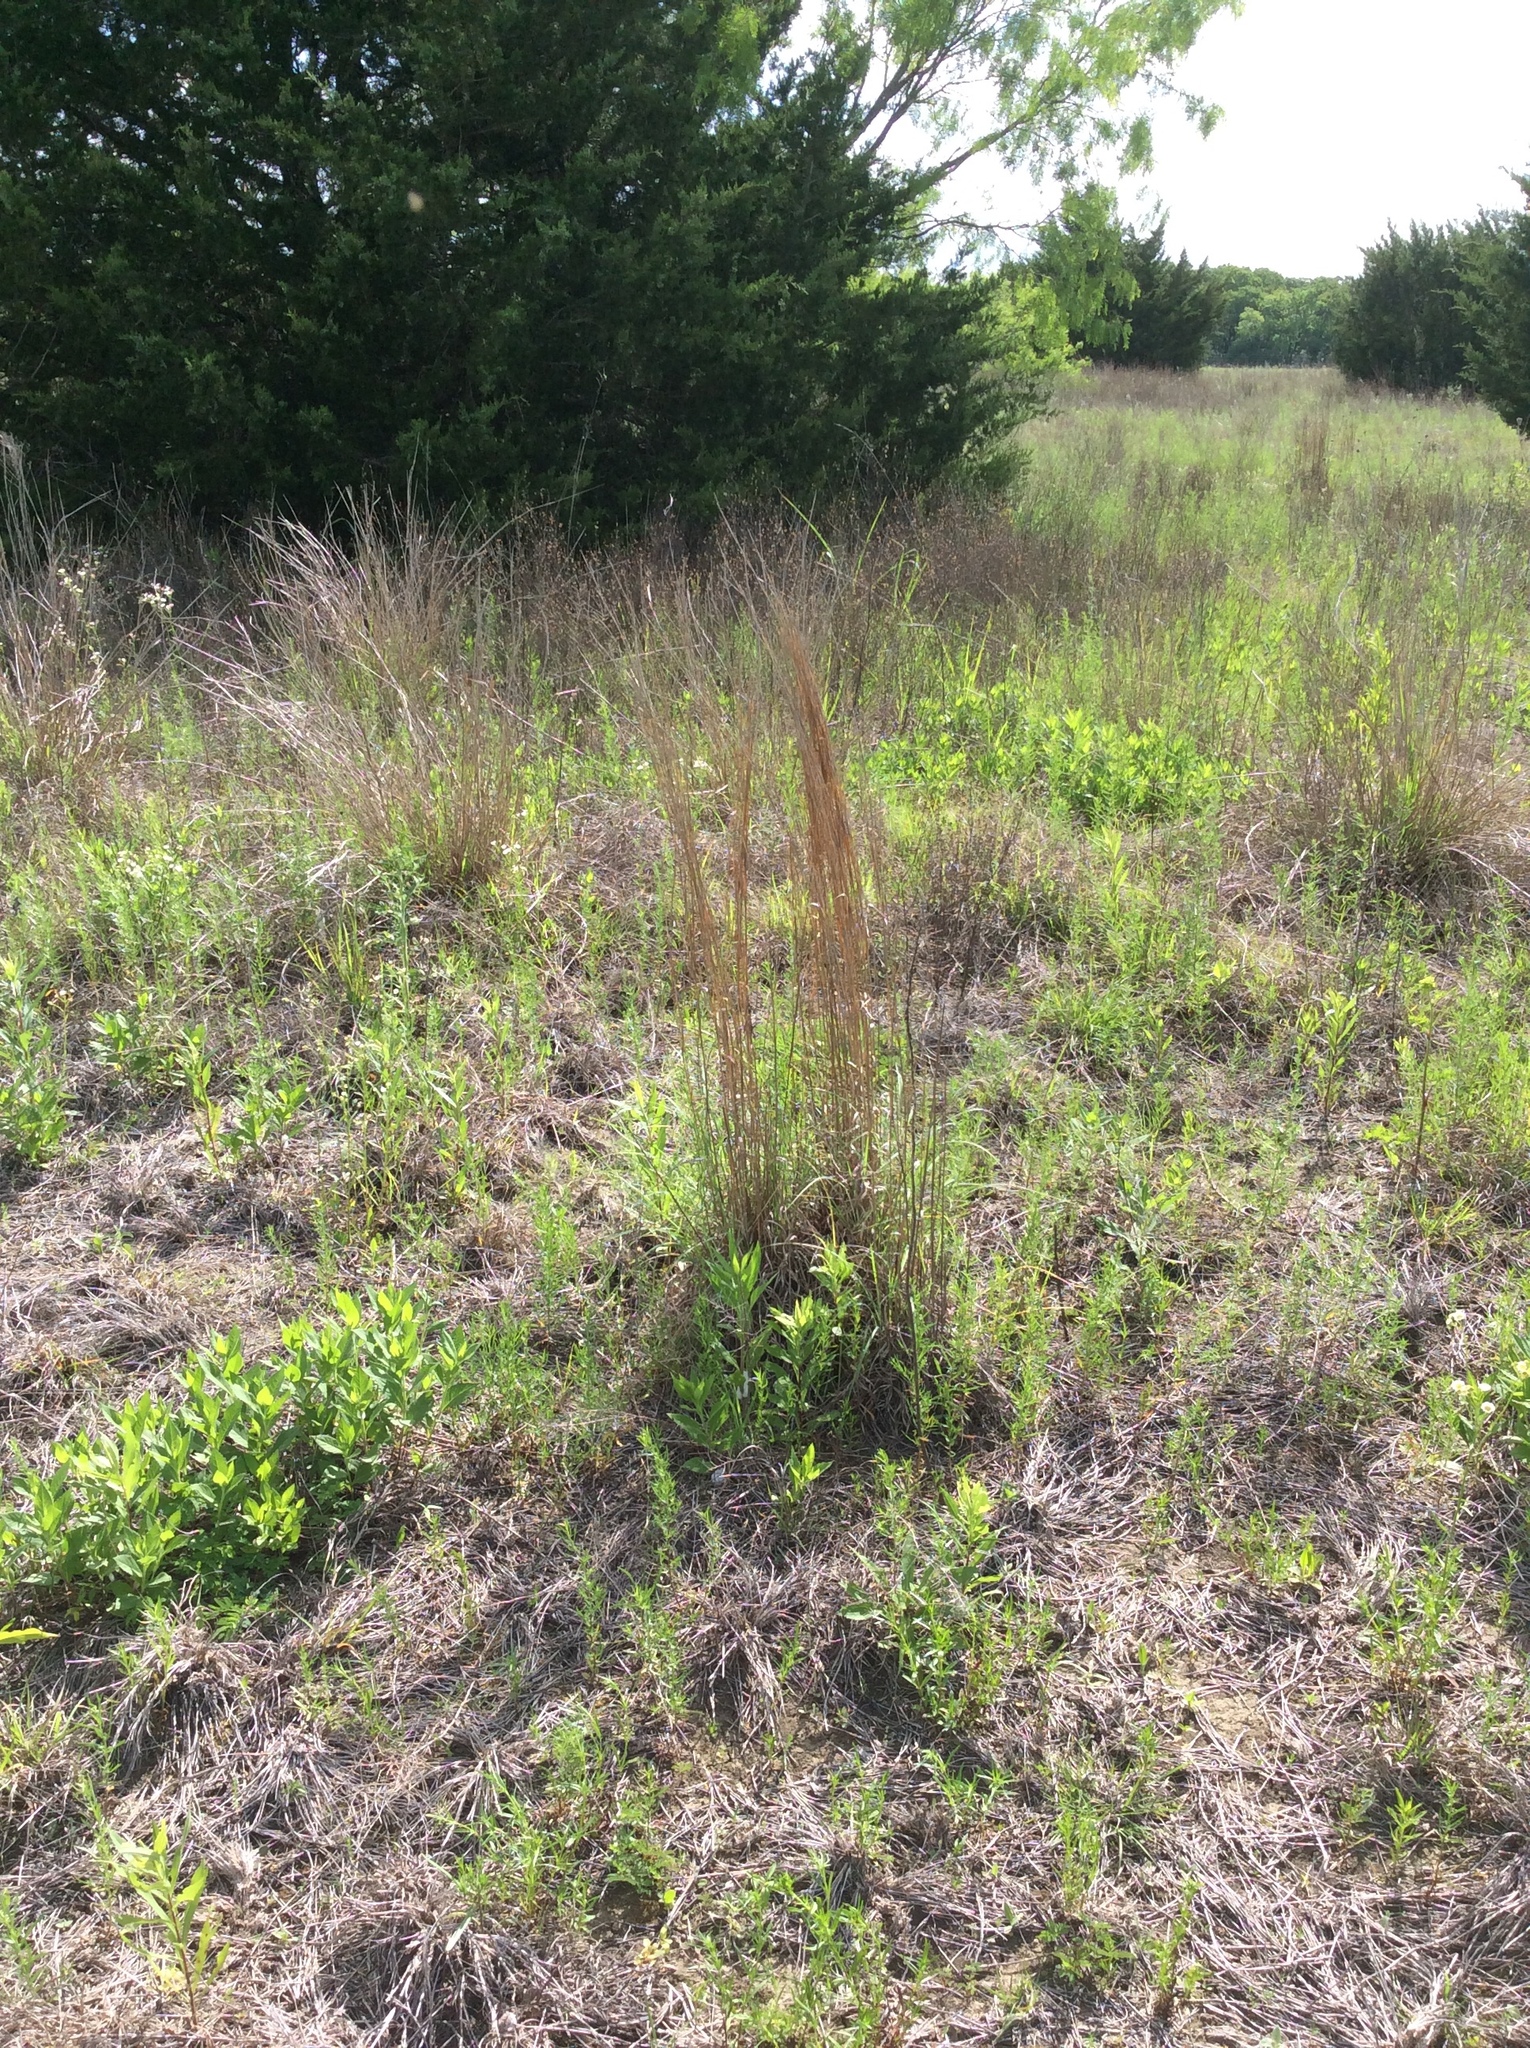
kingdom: Plantae
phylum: Tracheophyta
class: Liliopsida
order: Poales
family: Poaceae
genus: Schizachyrium
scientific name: Schizachyrium scoparium
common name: Little bluestem
